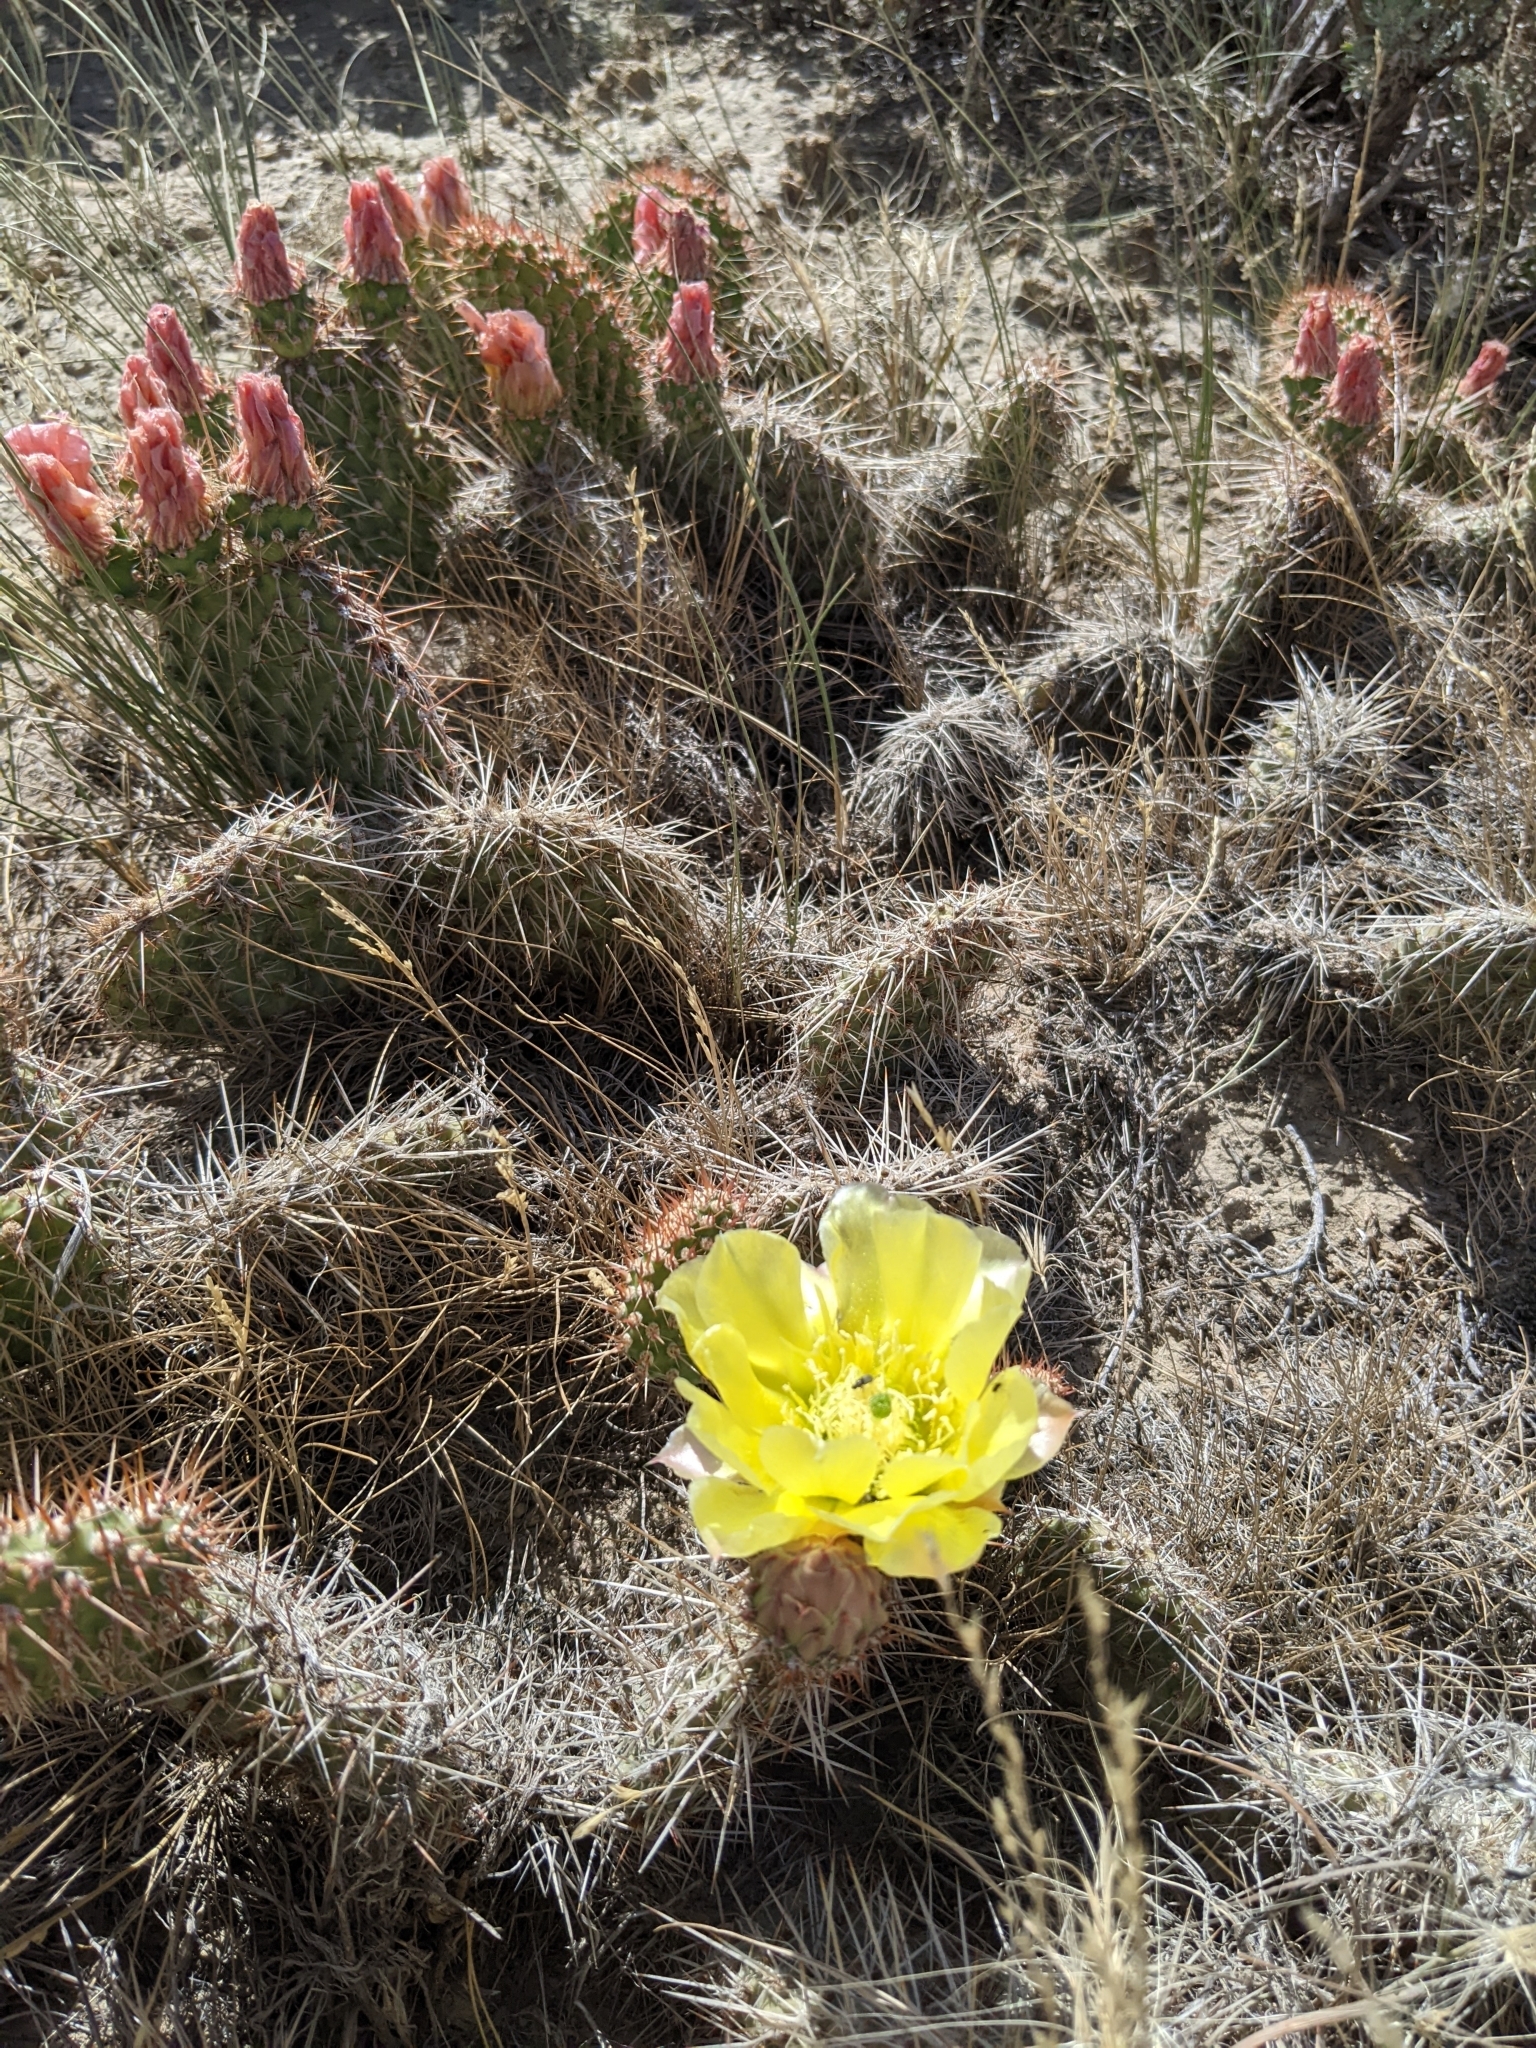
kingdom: Plantae
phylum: Tracheophyta
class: Magnoliopsida
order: Caryophyllales
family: Cactaceae
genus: Opuntia
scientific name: Opuntia polyacantha
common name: Plains prickly-pear
